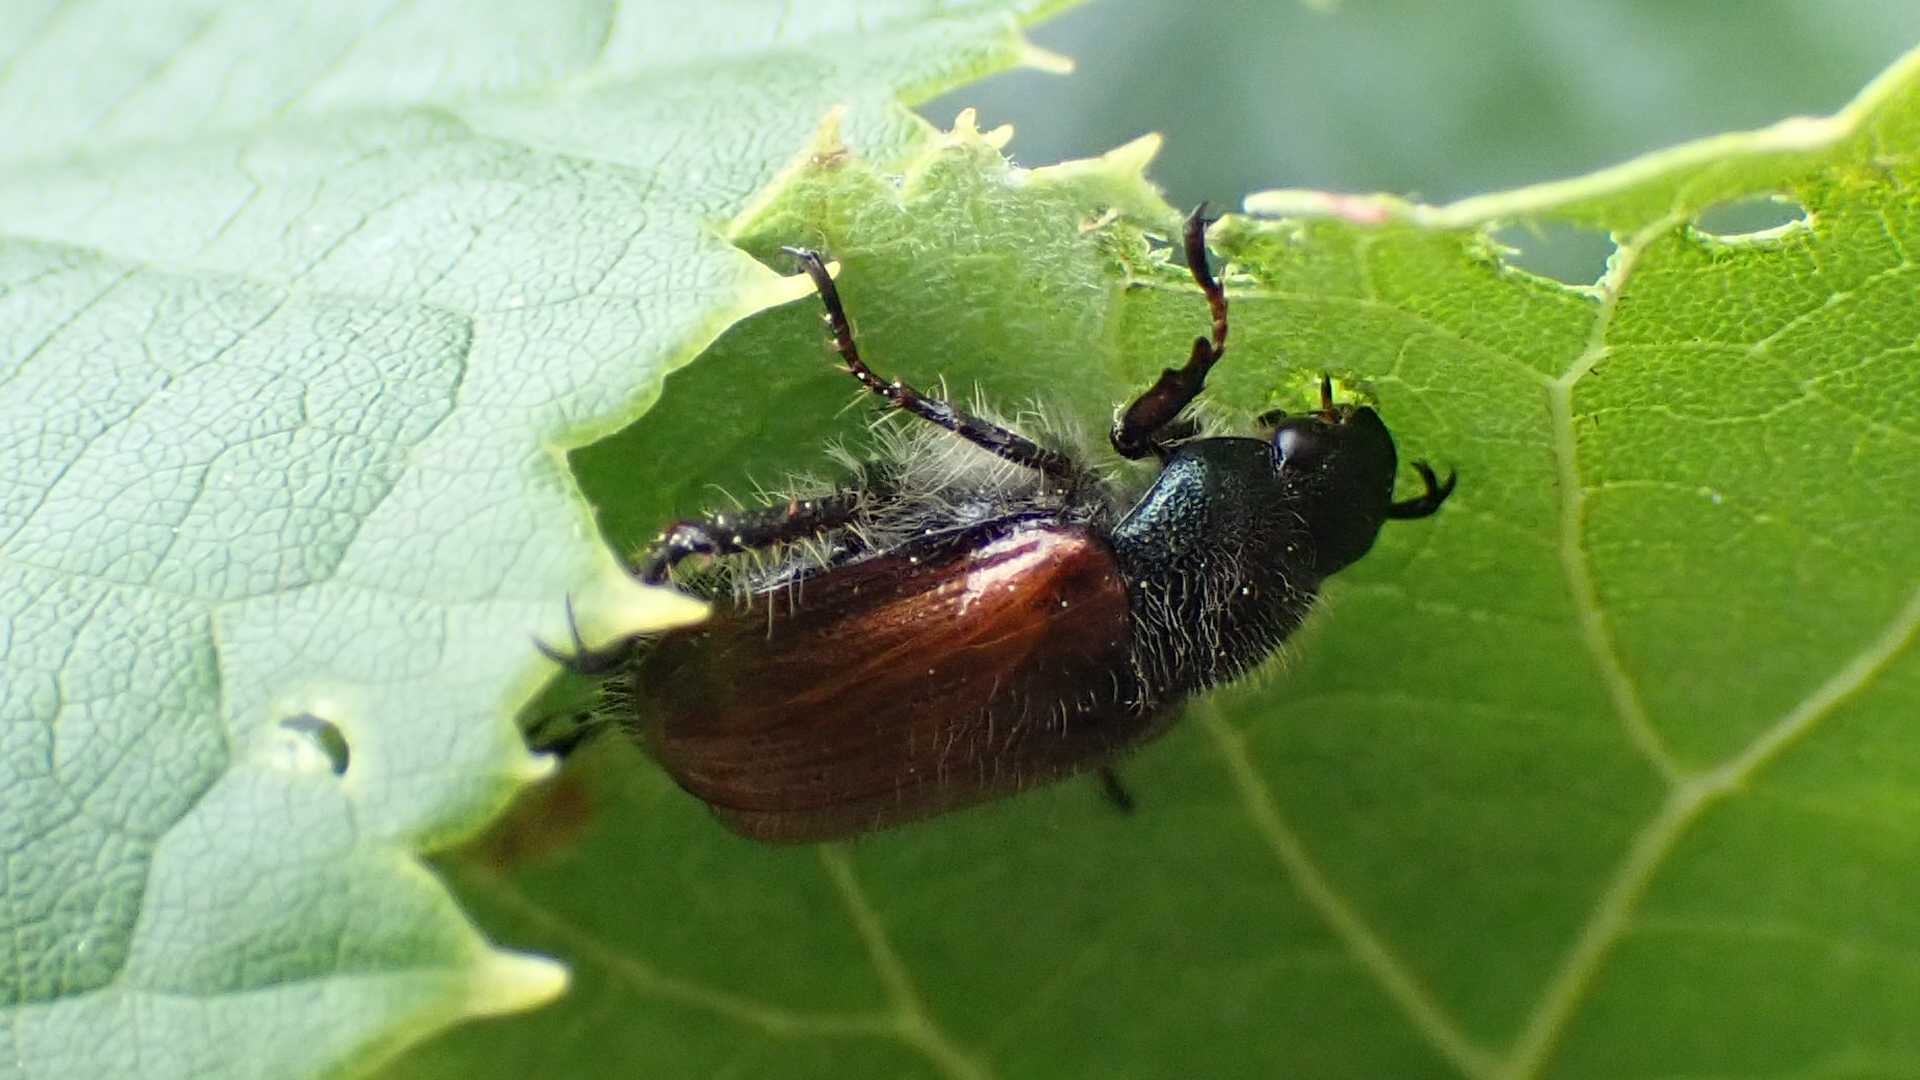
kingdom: Animalia
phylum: Arthropoda
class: Insecta
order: Coleoptera
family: Scarabaeidae
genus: Phyllopertha
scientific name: Phyllopertha horticola
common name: Garden chafer
